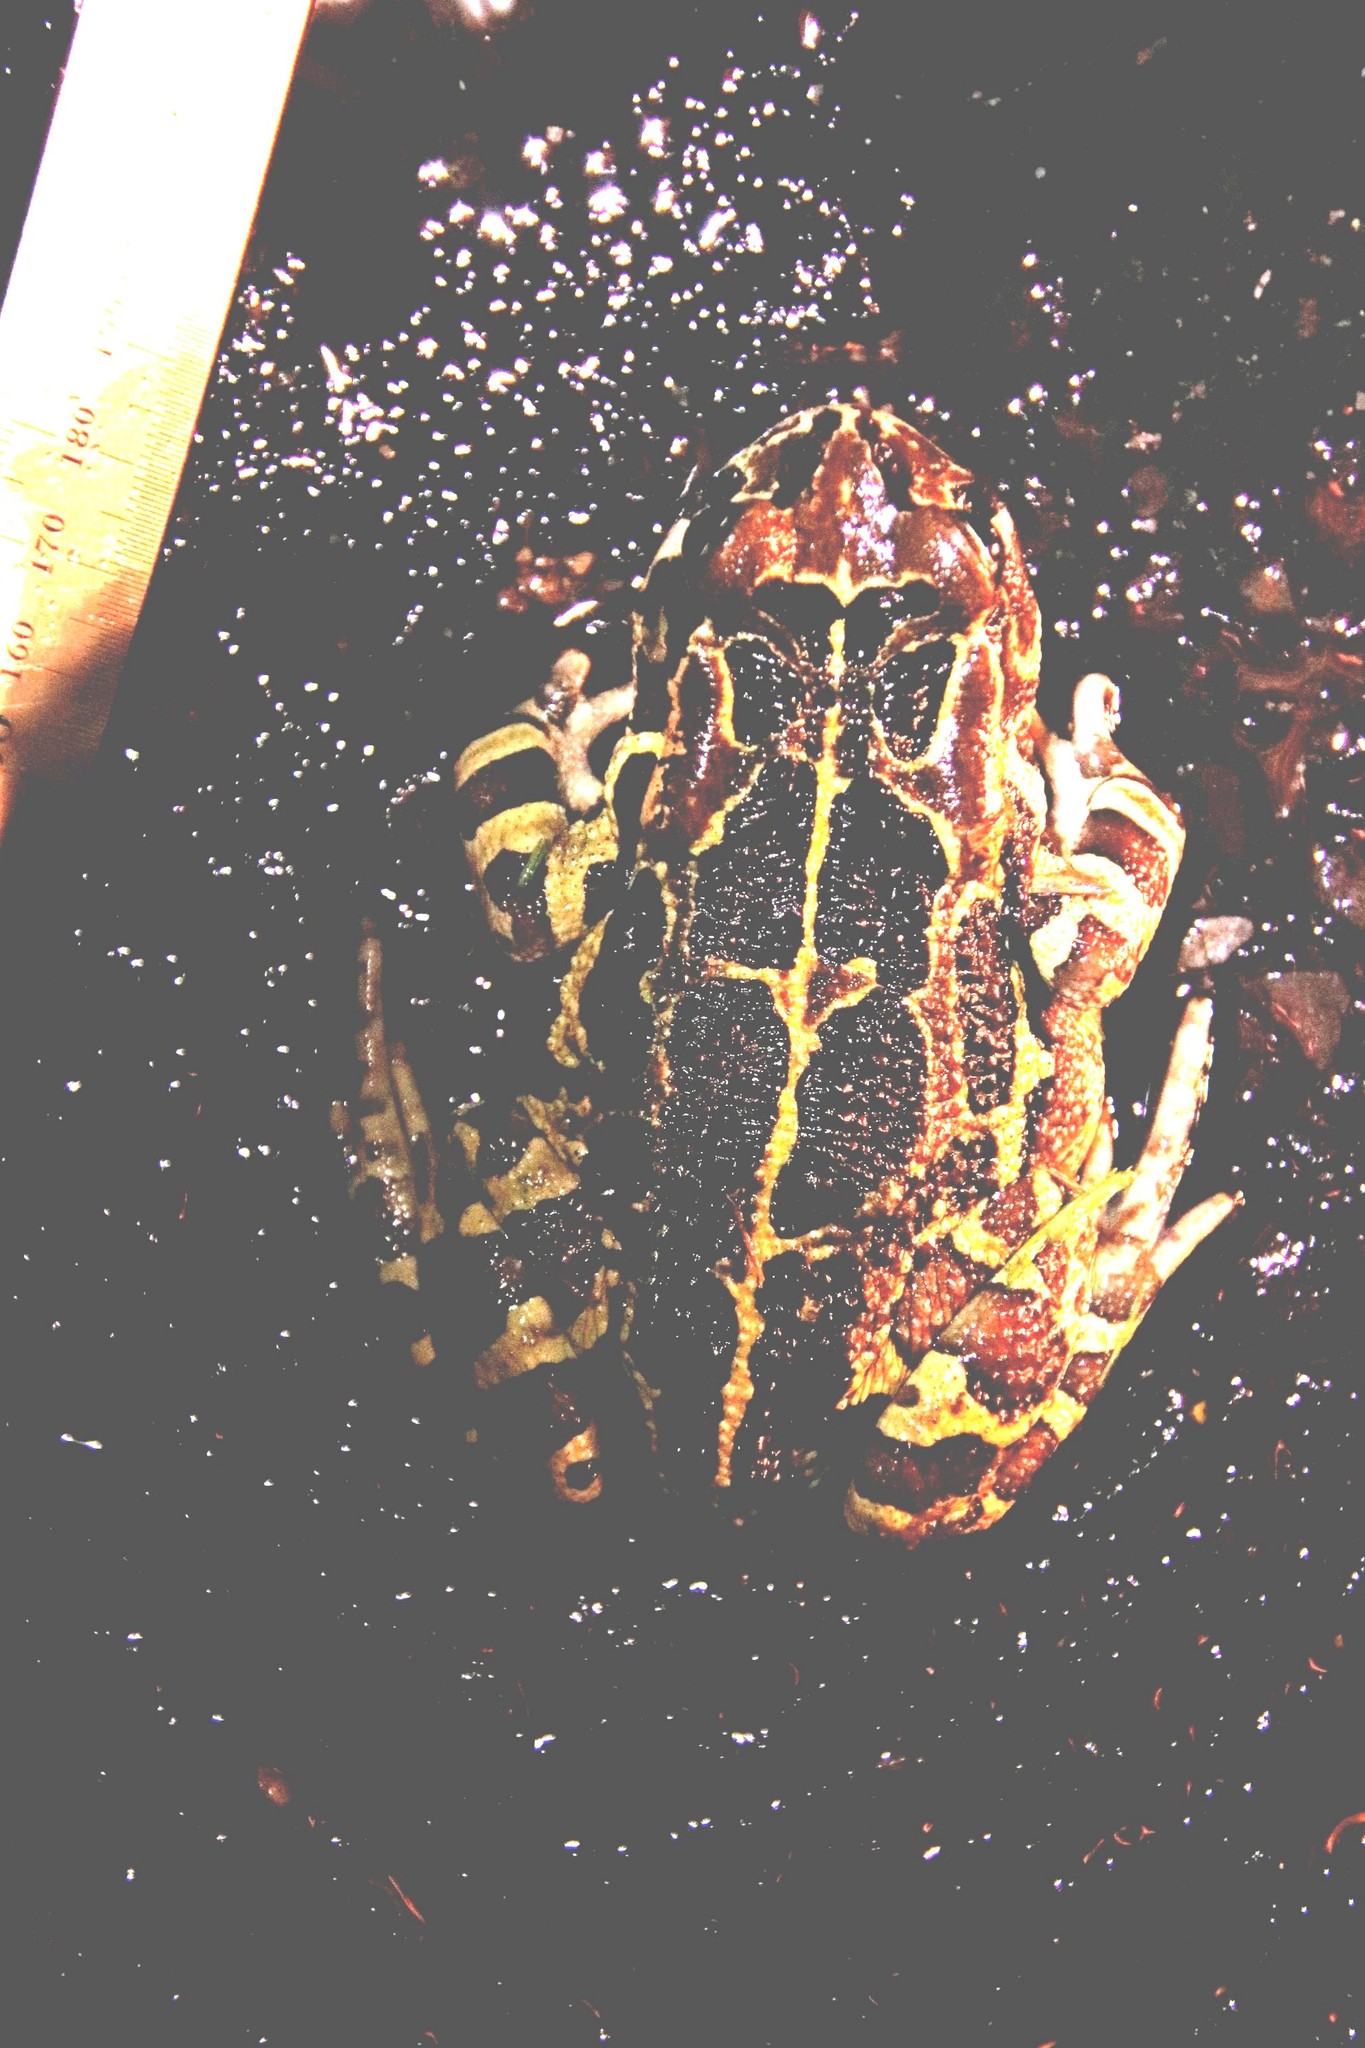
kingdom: Animalia
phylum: Chordata
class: Amphibia
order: Anura
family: Bufonidae
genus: Sclerophrys
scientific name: Sclerophrys pantherina
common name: Panther toad
